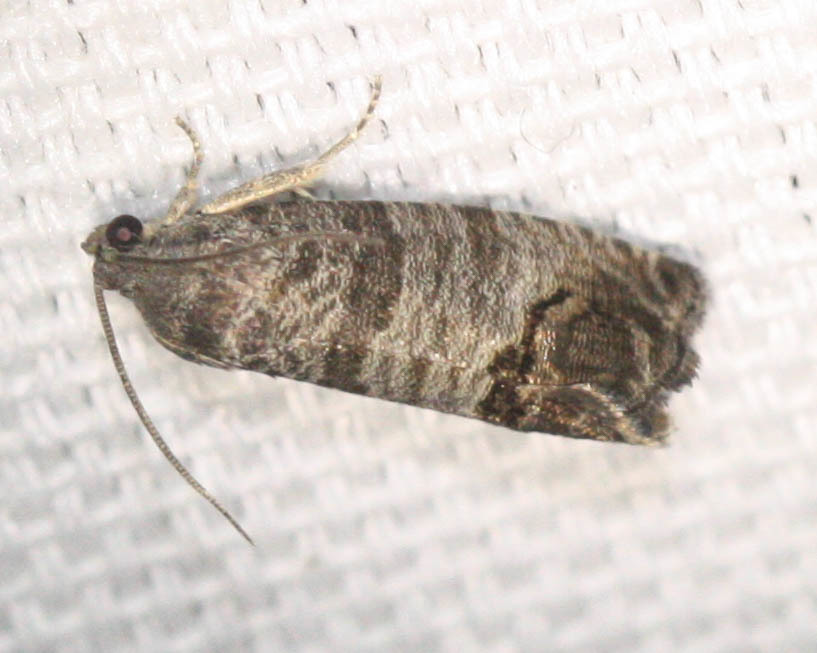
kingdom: Animalia
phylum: Arthropoda
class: Insecta
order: Lepidoptera
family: Tortricidae
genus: Cydia
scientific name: Cydia pomonella
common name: Codling moth
